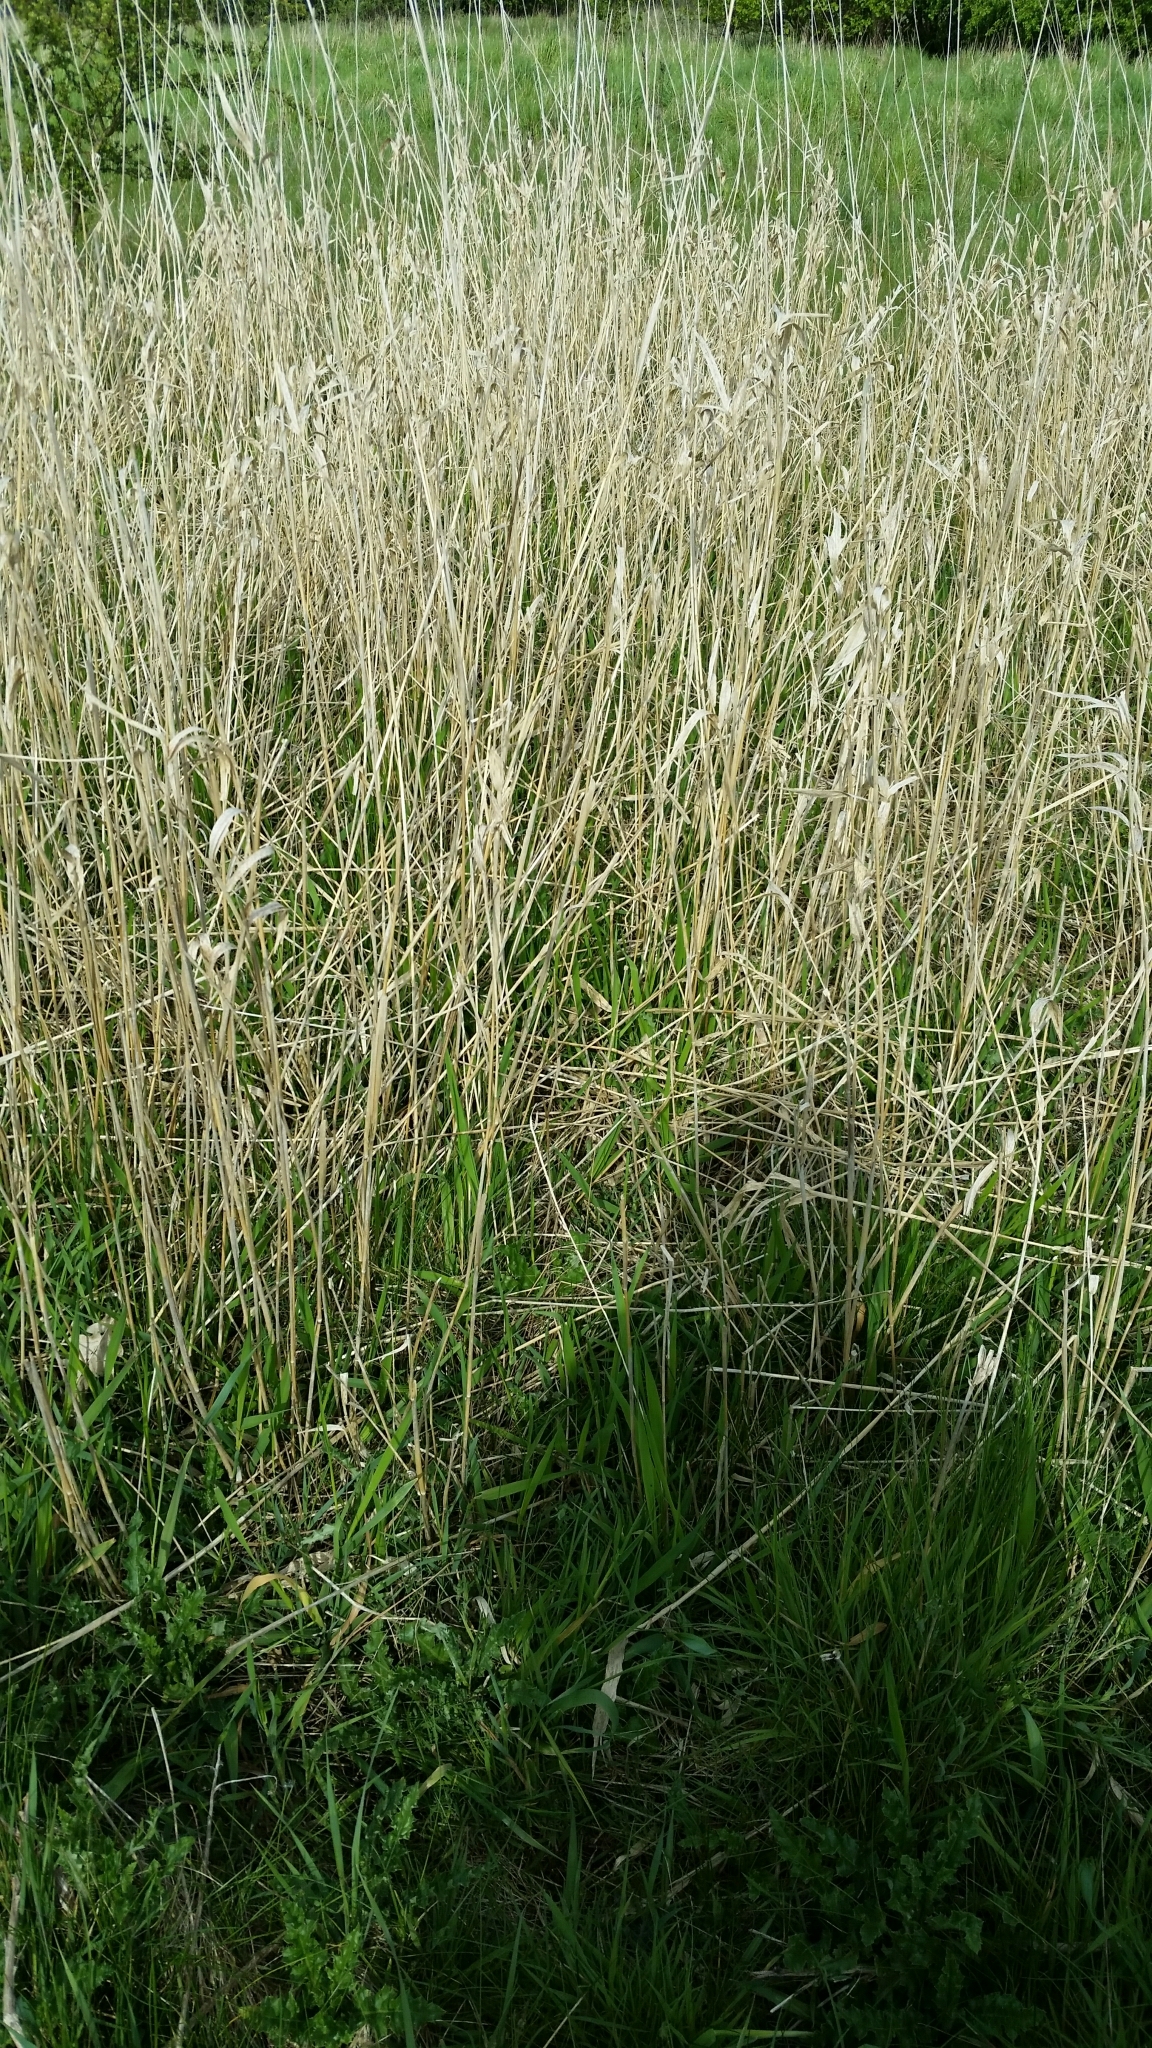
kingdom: Plantae
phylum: Tracheophyta
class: Liliopsida
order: Poales
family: Poaceae
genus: Phalaris
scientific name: Phalaris arundinacea
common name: Reed canary-grass
